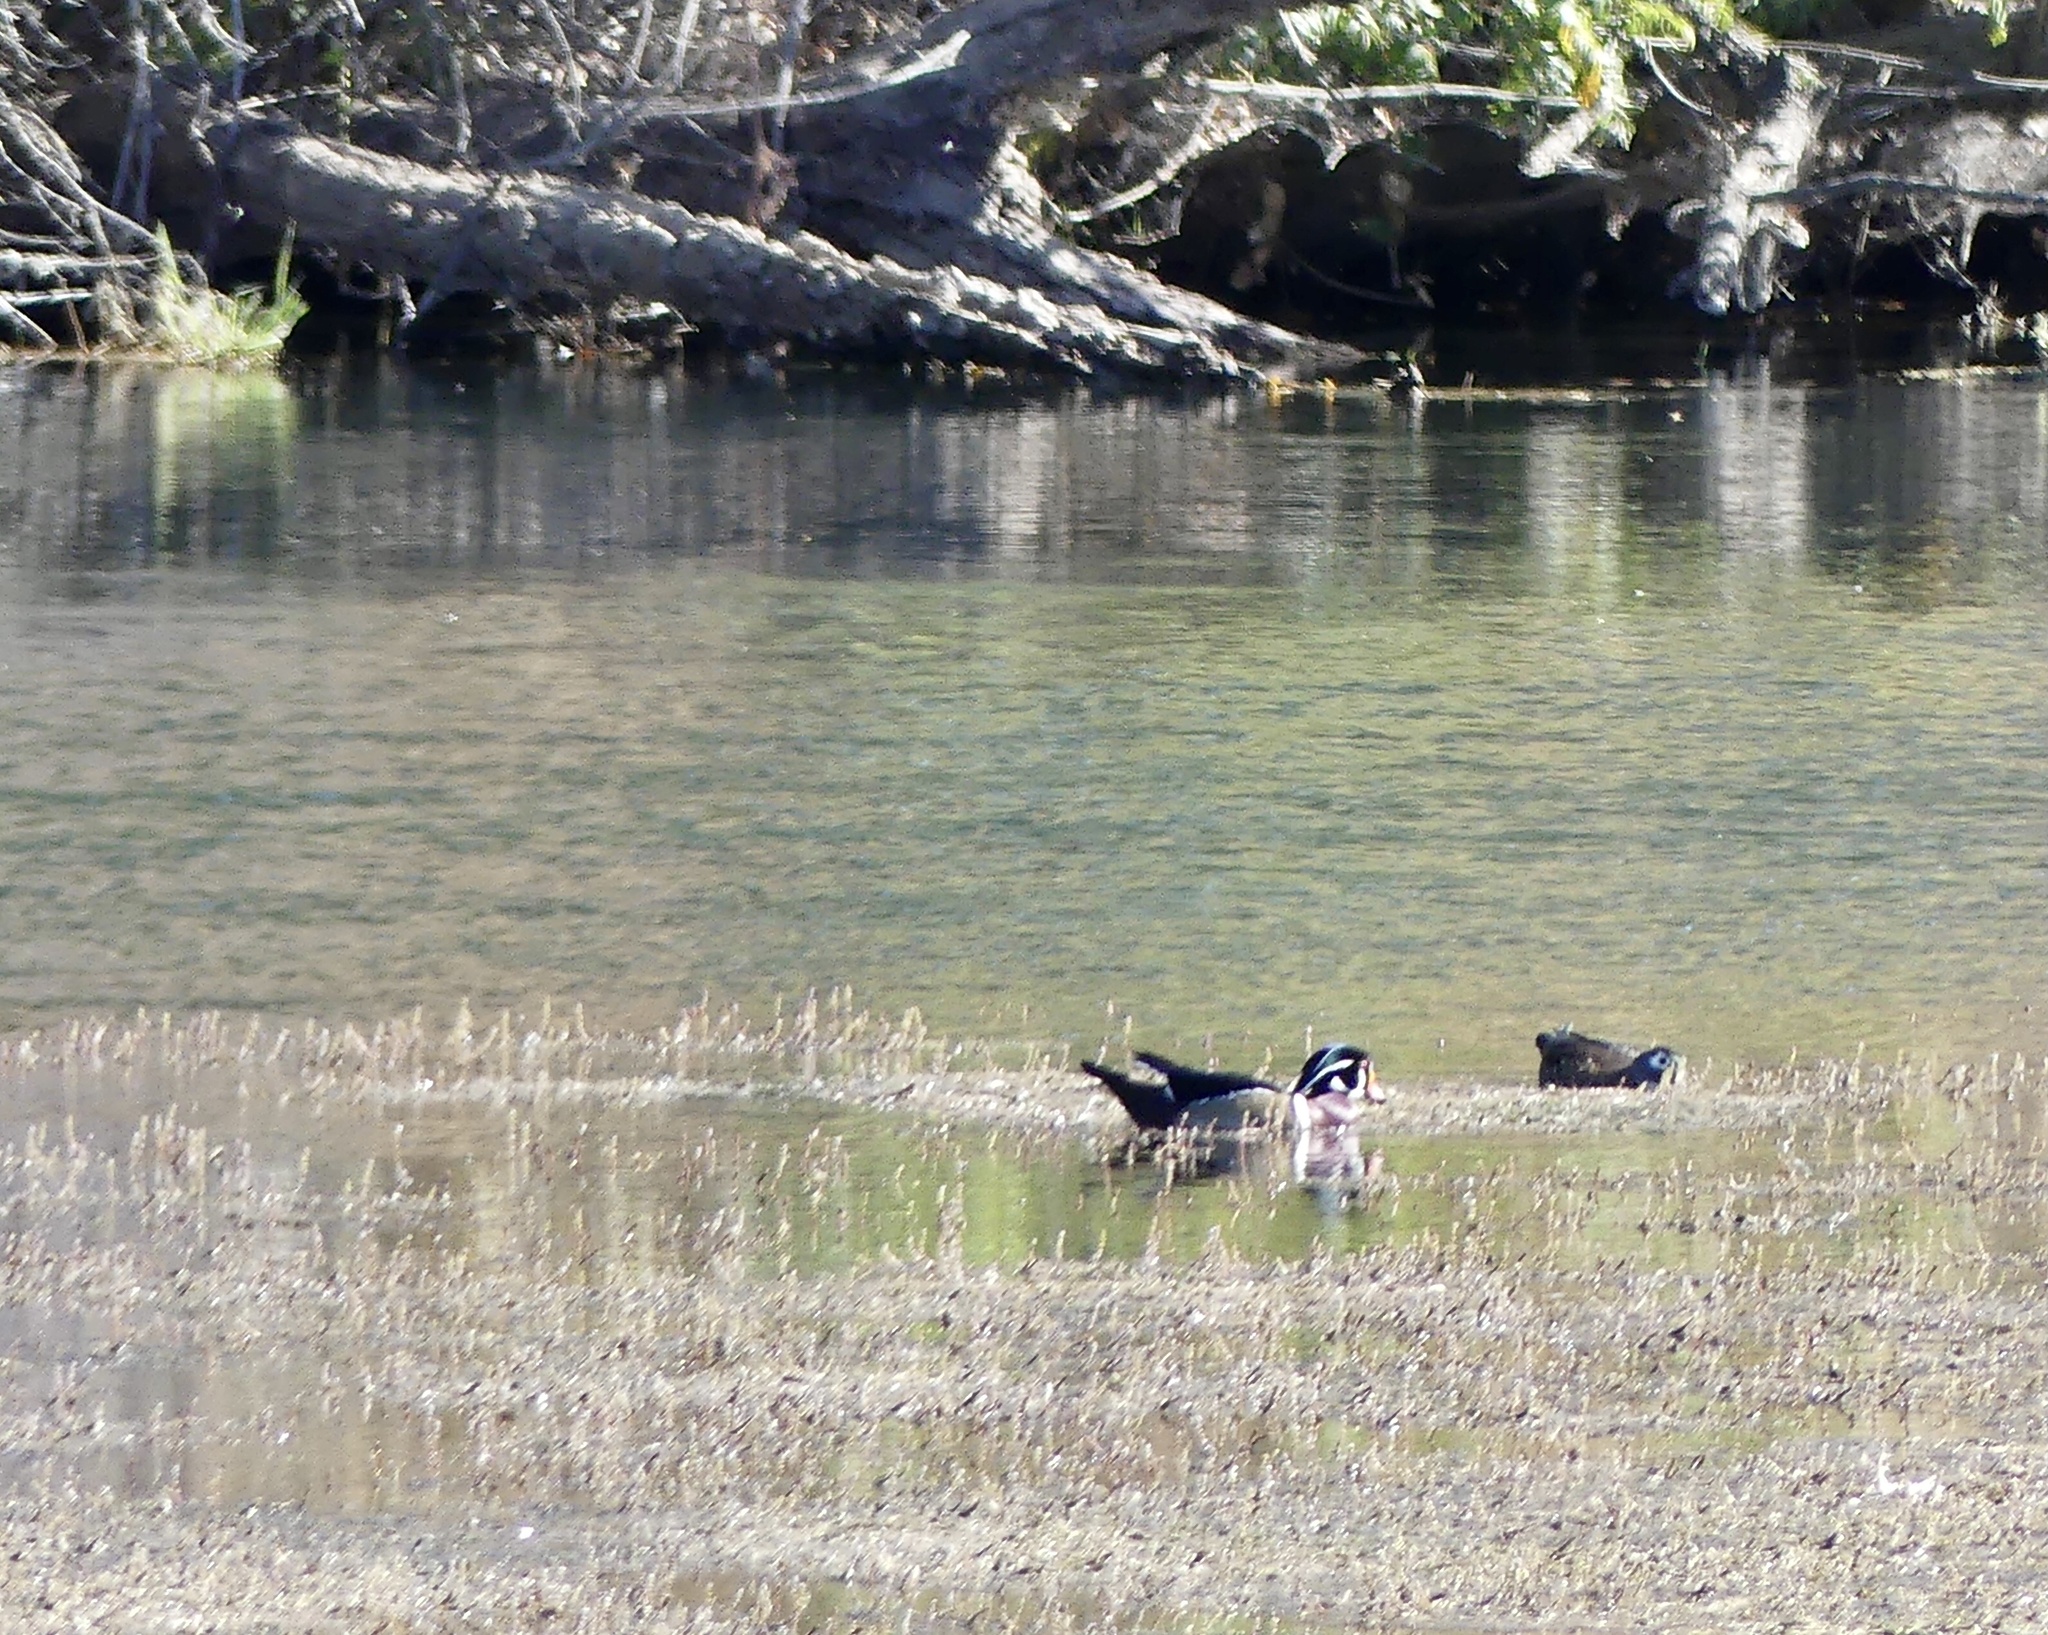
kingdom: Animalia
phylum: Chordata
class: Aves
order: Anseriformes
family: Anatidae
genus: Aix
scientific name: Aix sponsa
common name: Wood duck
